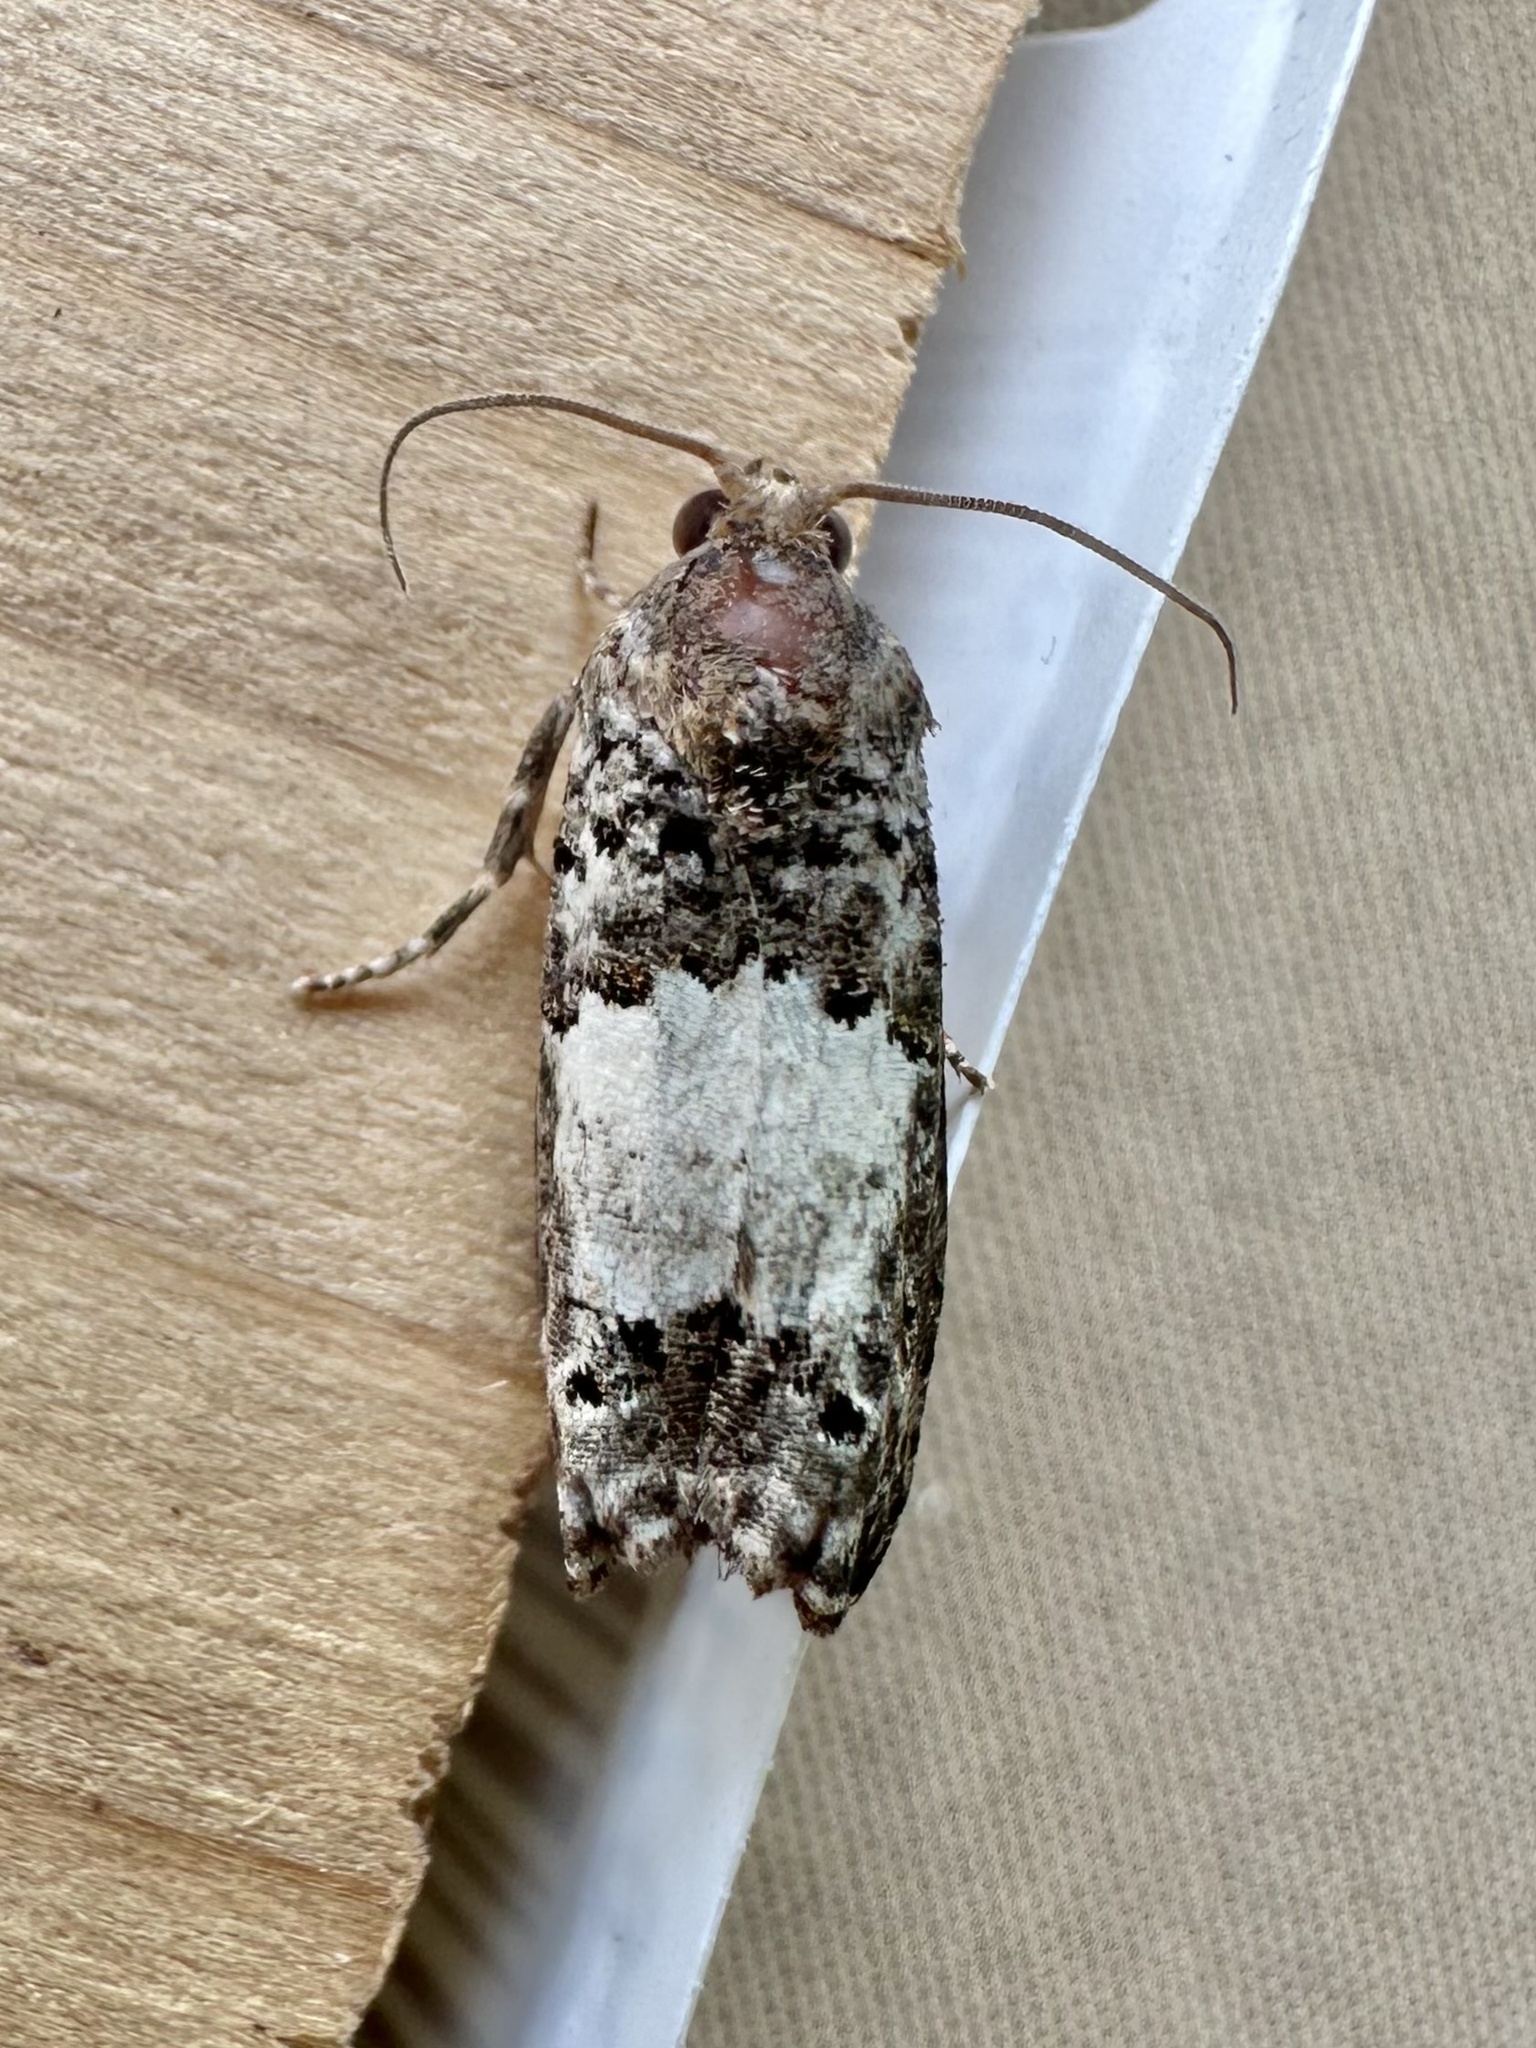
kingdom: Animalia
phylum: Arthropoda
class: Insecta
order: Lepidoptera
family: Tortricidae
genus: Epiblema
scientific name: Epiblema carolinana
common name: Gray-blotched epiblema moth
